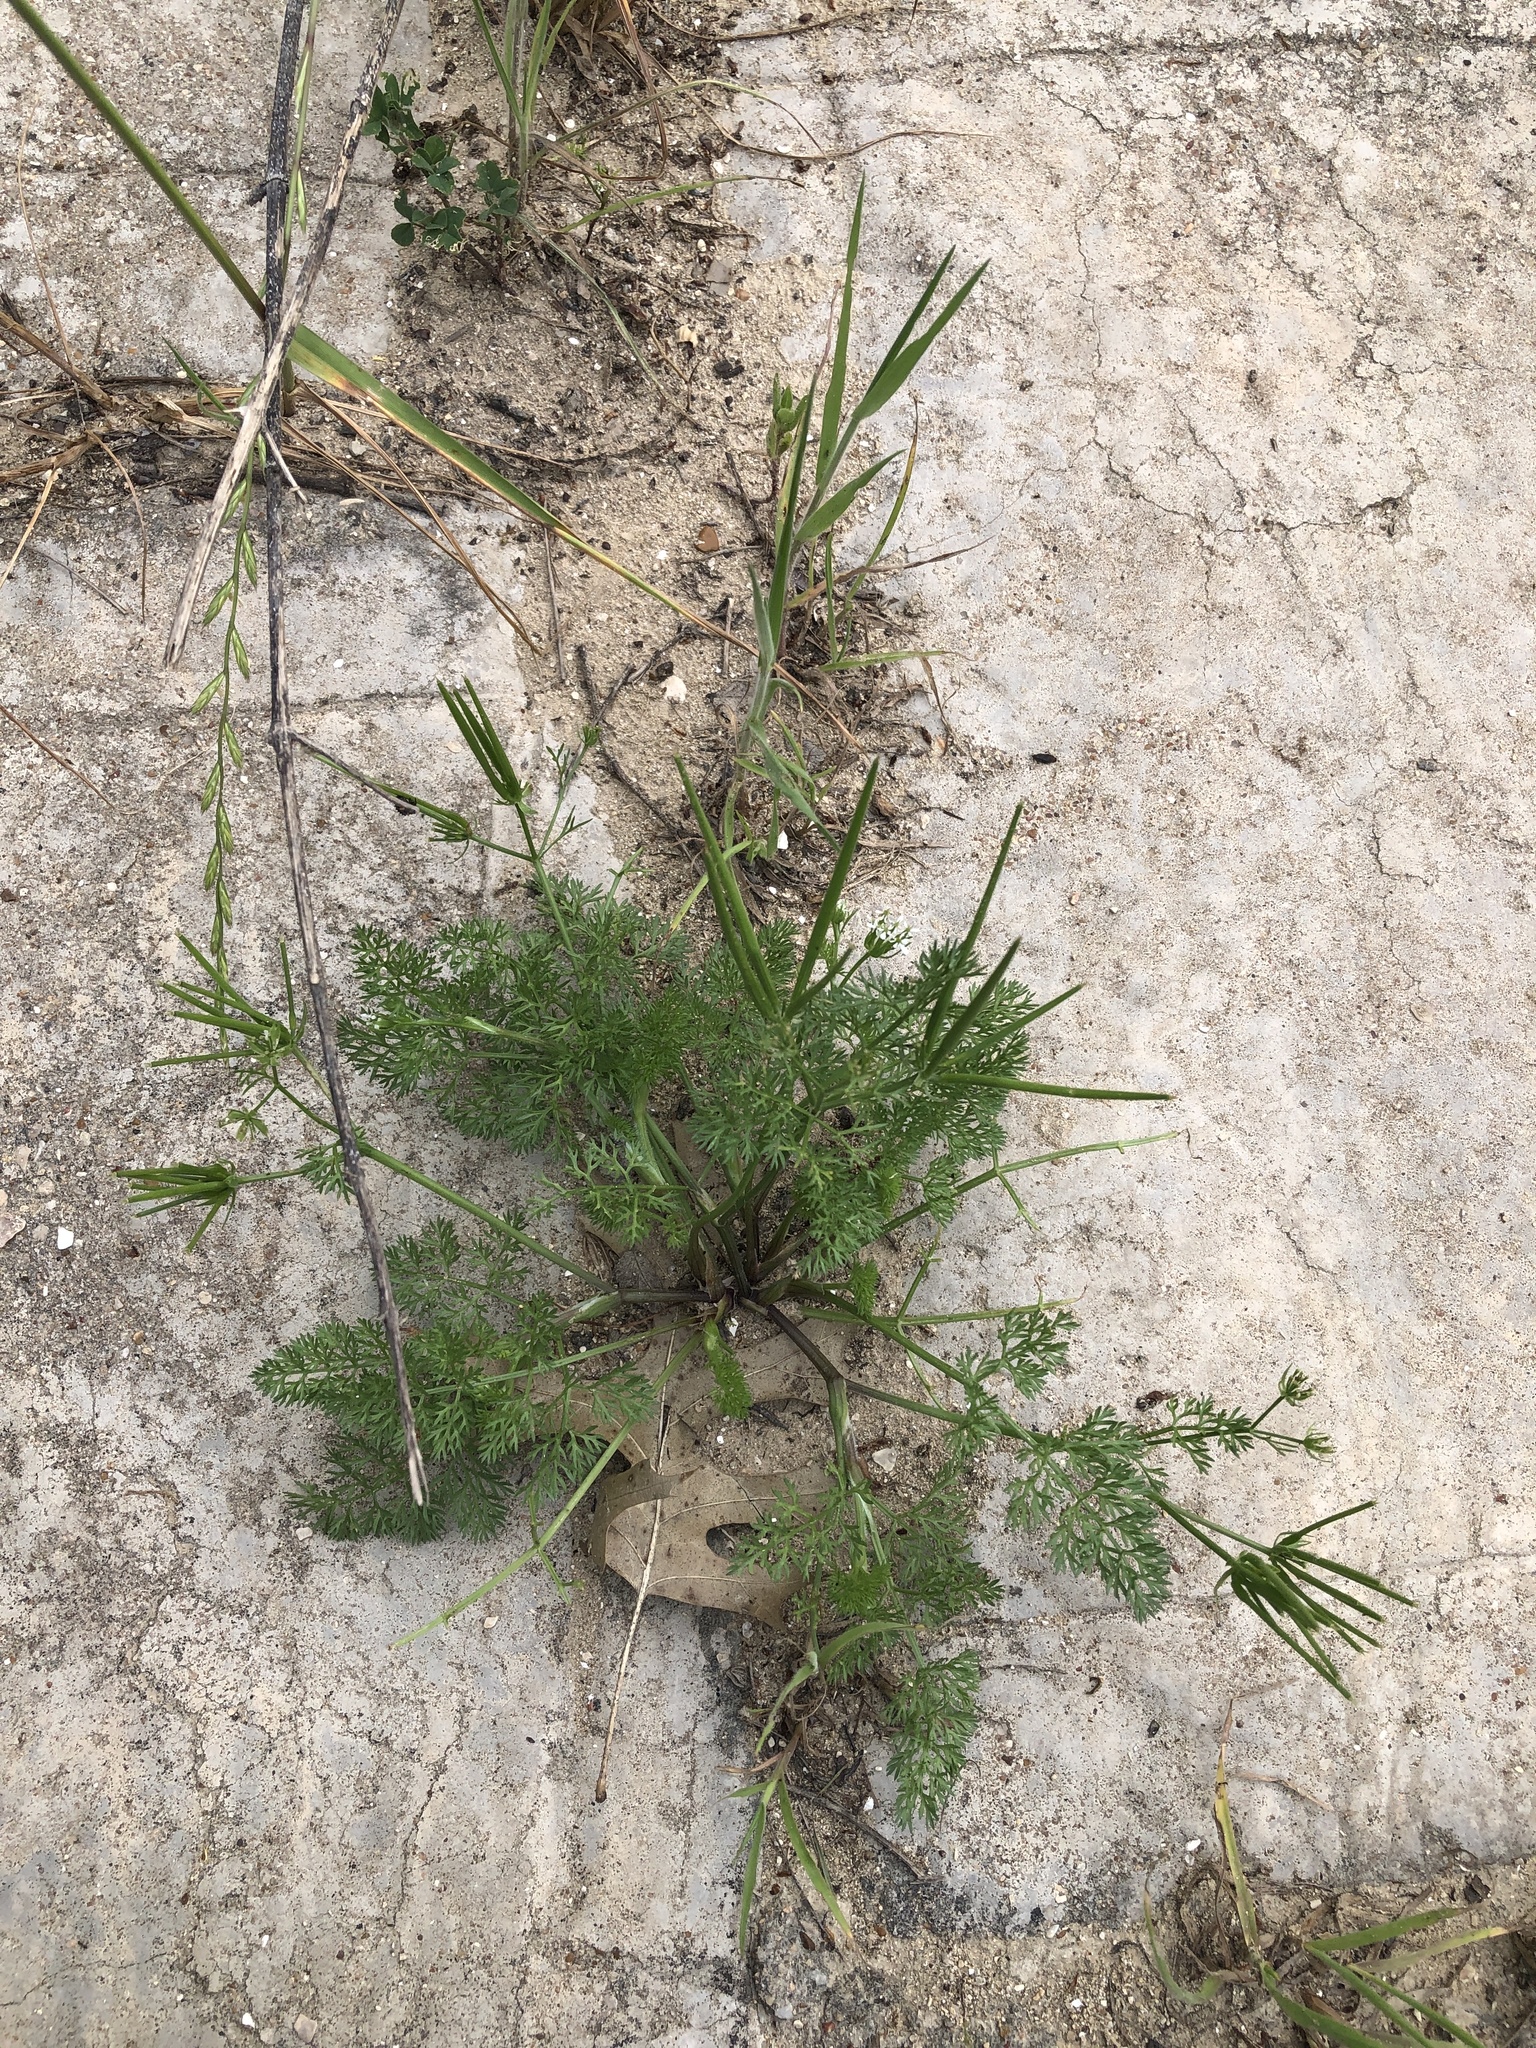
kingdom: Plantae
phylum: Tracheophyta
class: Magnoliopsida
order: Apiales
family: Apiaceae
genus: Scandix
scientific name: Scandix pecten-veneris
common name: Shepherd's-needle
